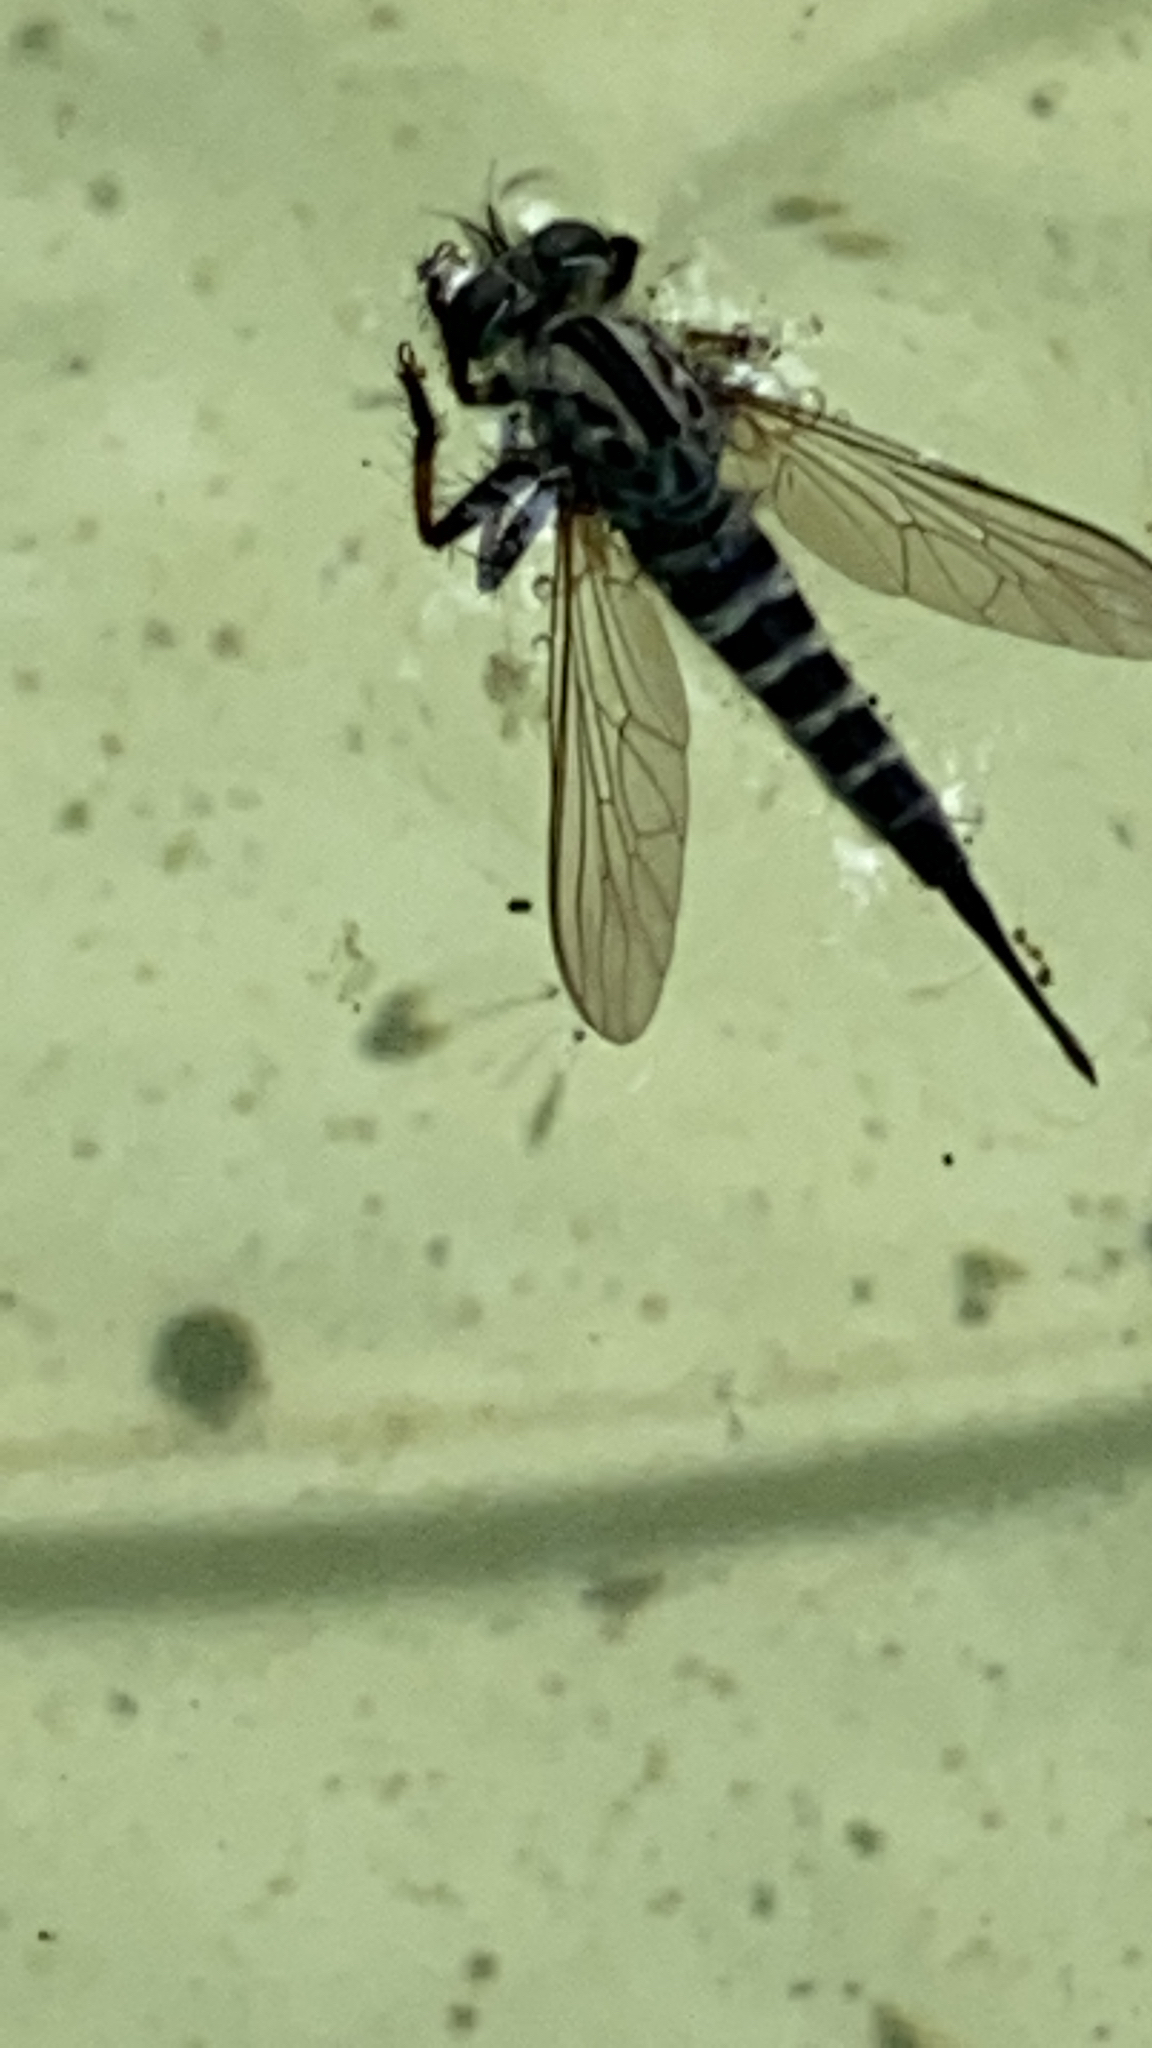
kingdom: Animalia
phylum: Arthropoda
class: Insecta
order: Diptera
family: Asilidae
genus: Efferia
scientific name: Efferia aestuans
